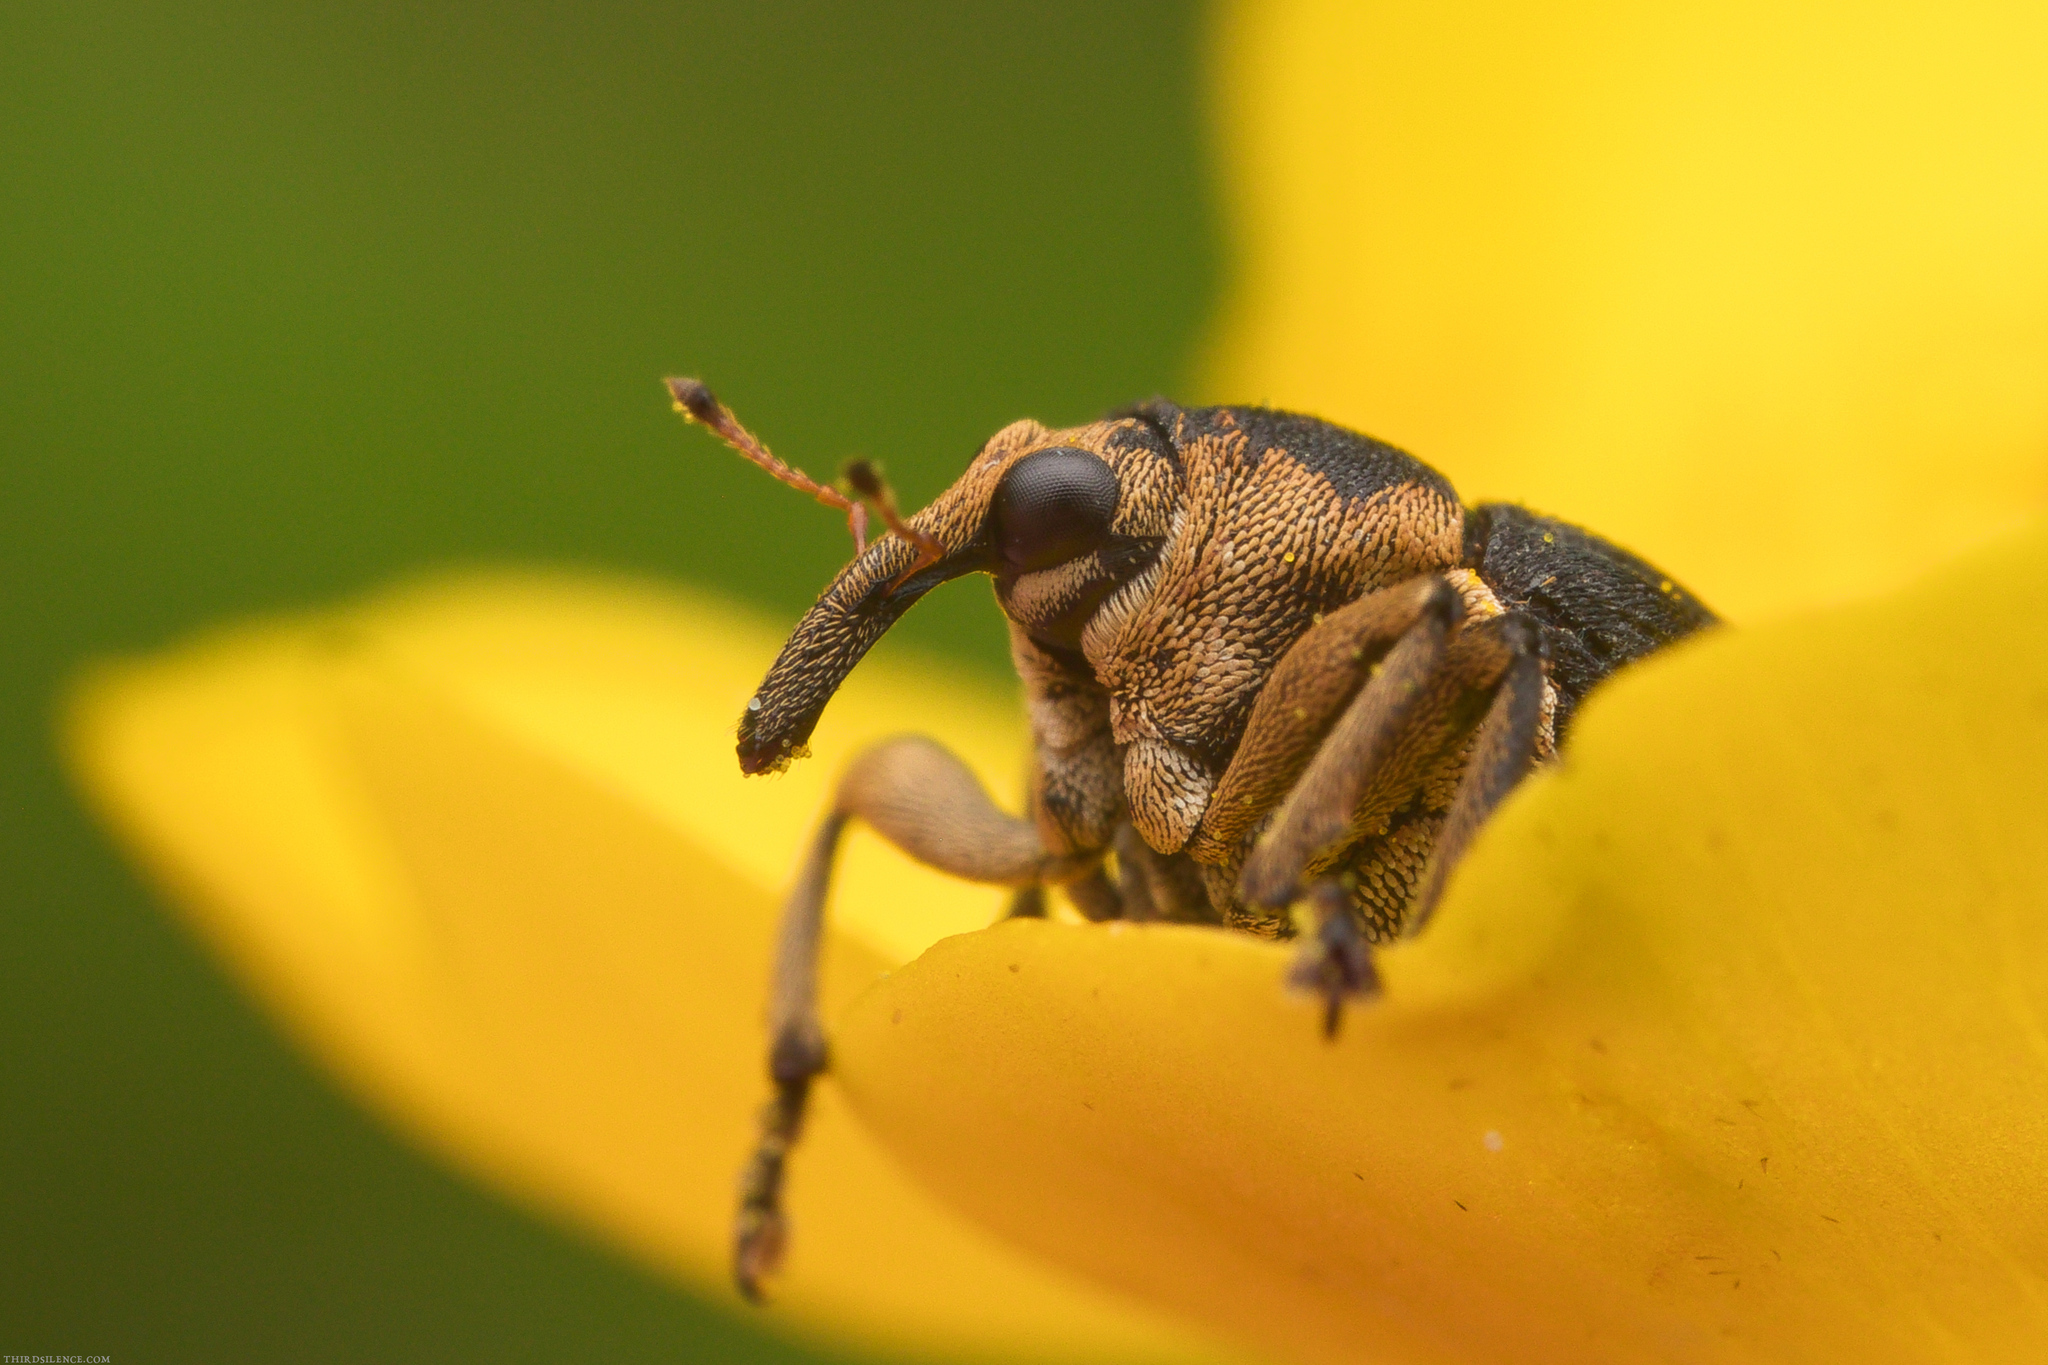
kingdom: Animalia
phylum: Arthropoda
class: Insecta
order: Coleoptera
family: Curculionidae
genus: Mononychus
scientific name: Mononychus punctumalbum
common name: Iris weevil
